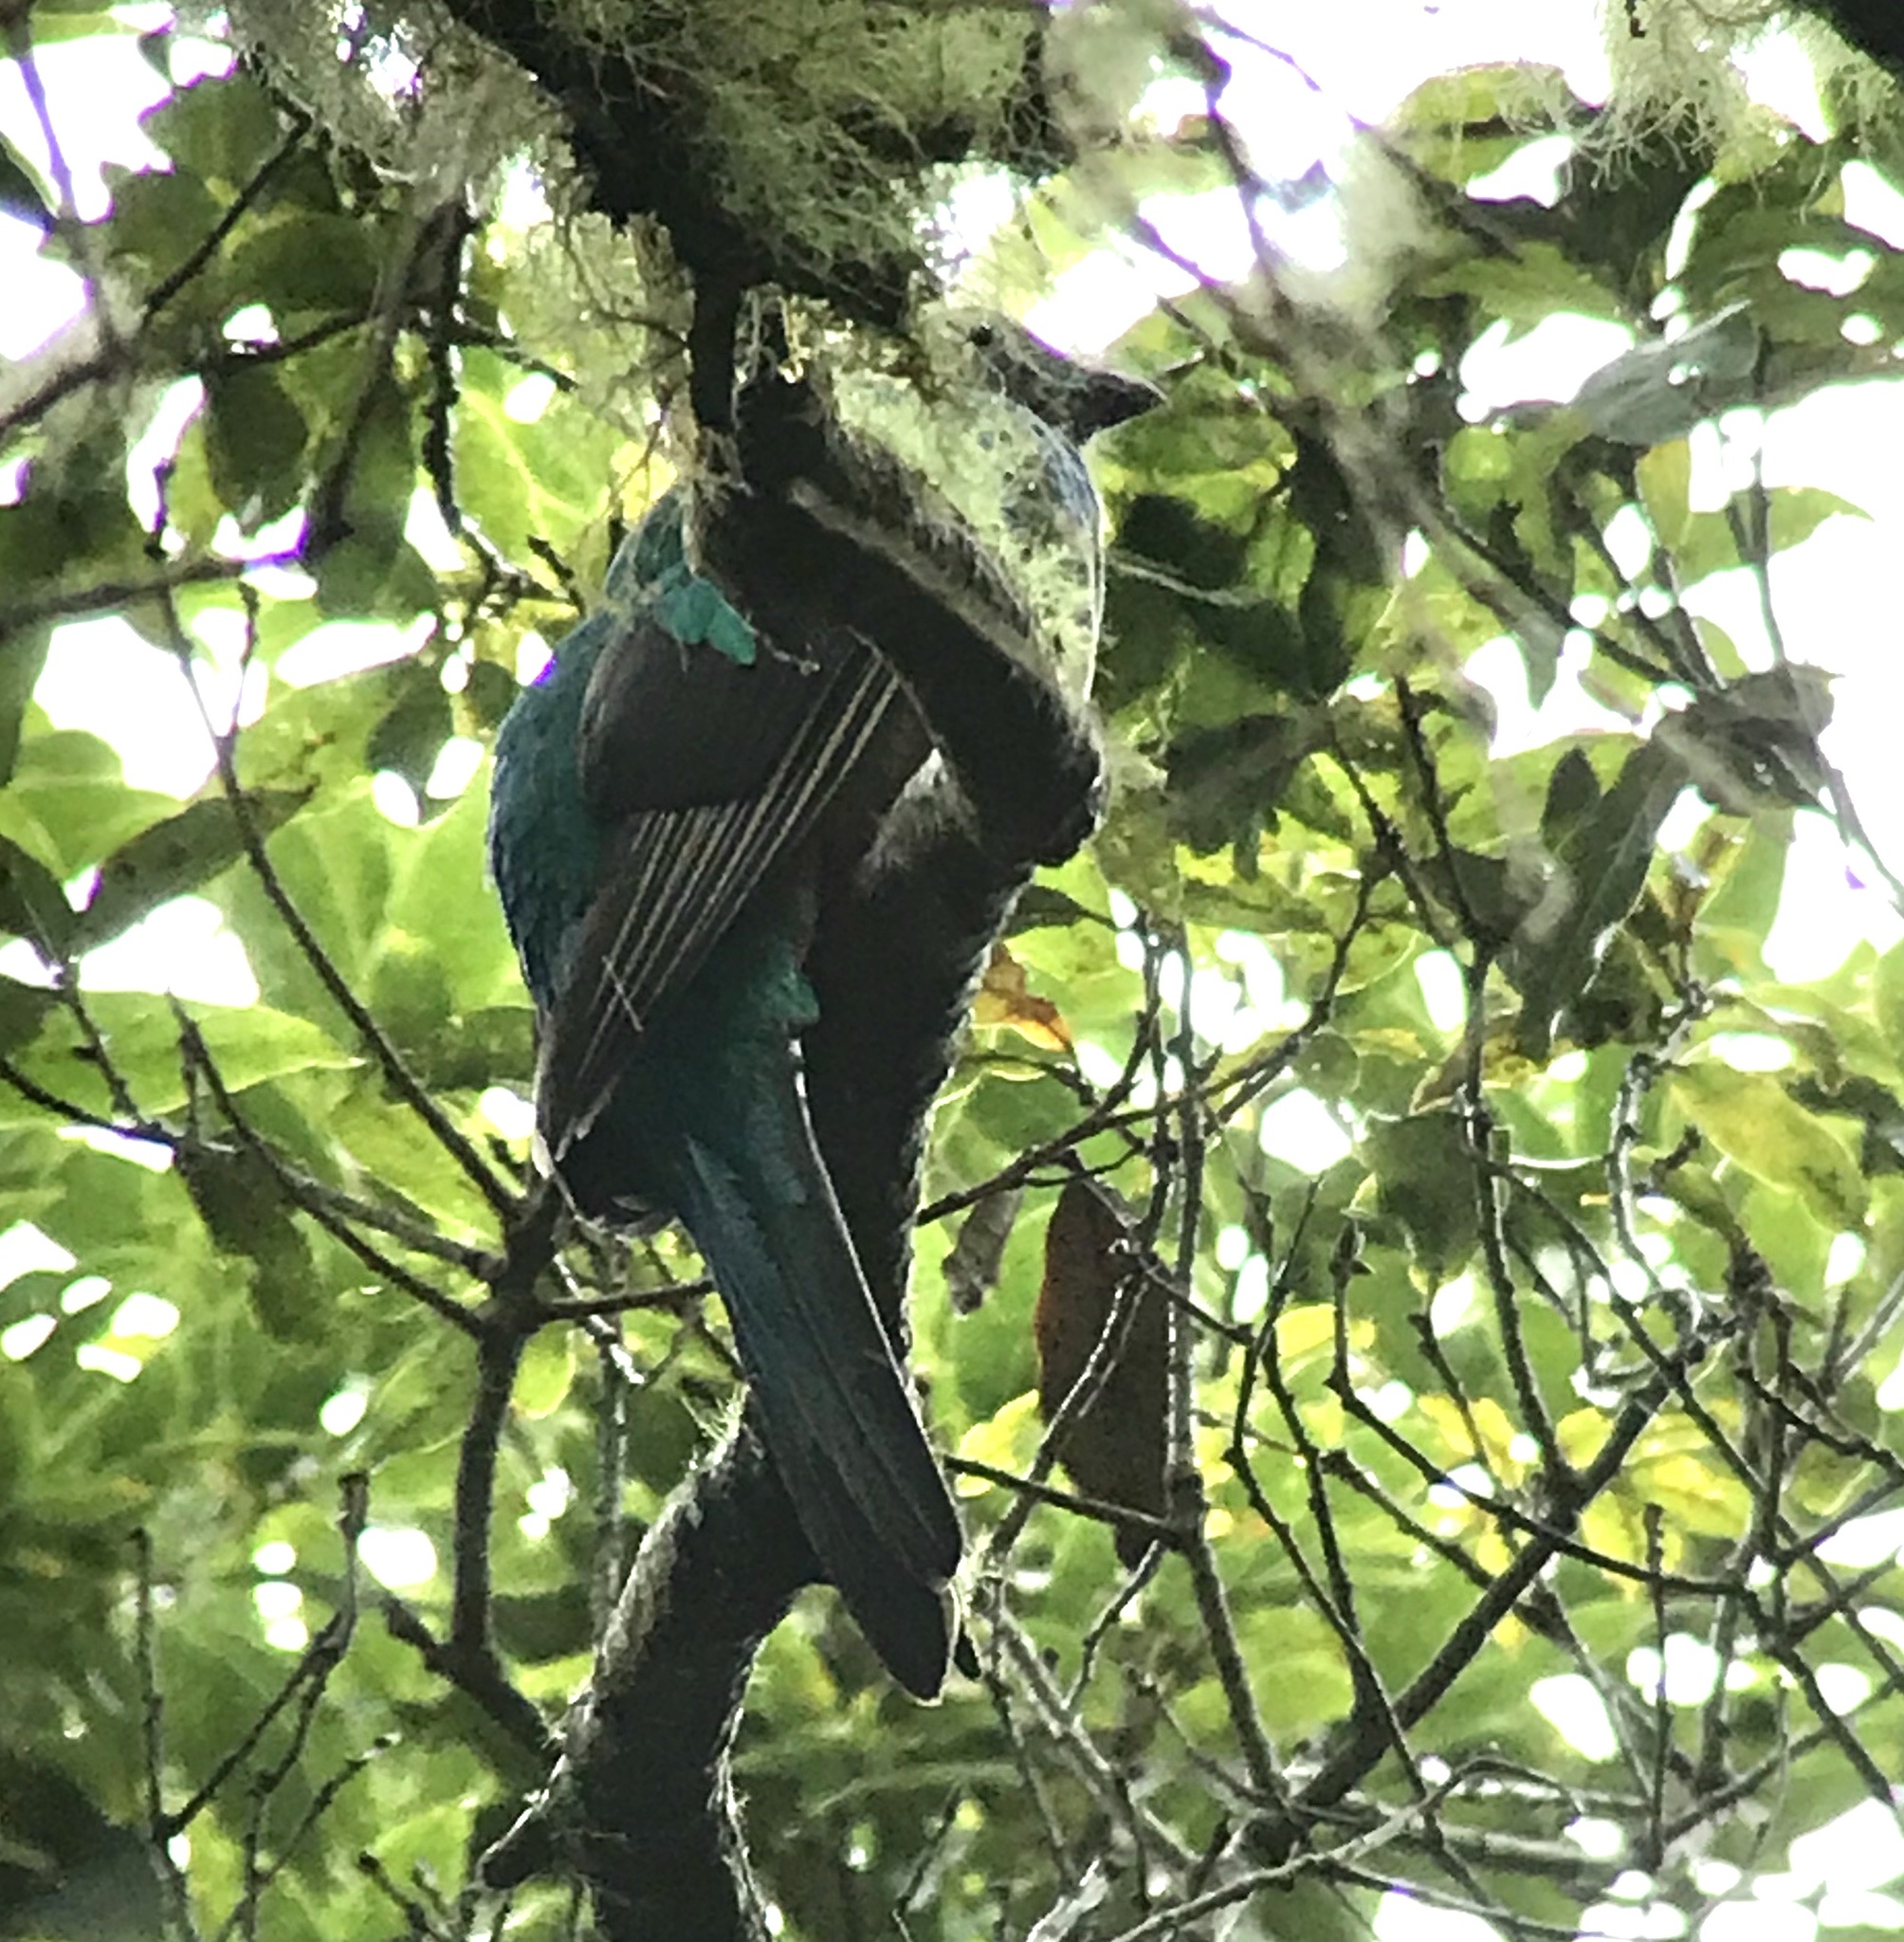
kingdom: Animalia
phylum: Chordata
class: Aves
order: Trogoniformes
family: Trogonidae
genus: Pharomachrus
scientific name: Pharomachrus mocinno
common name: Resplendent quetzal
